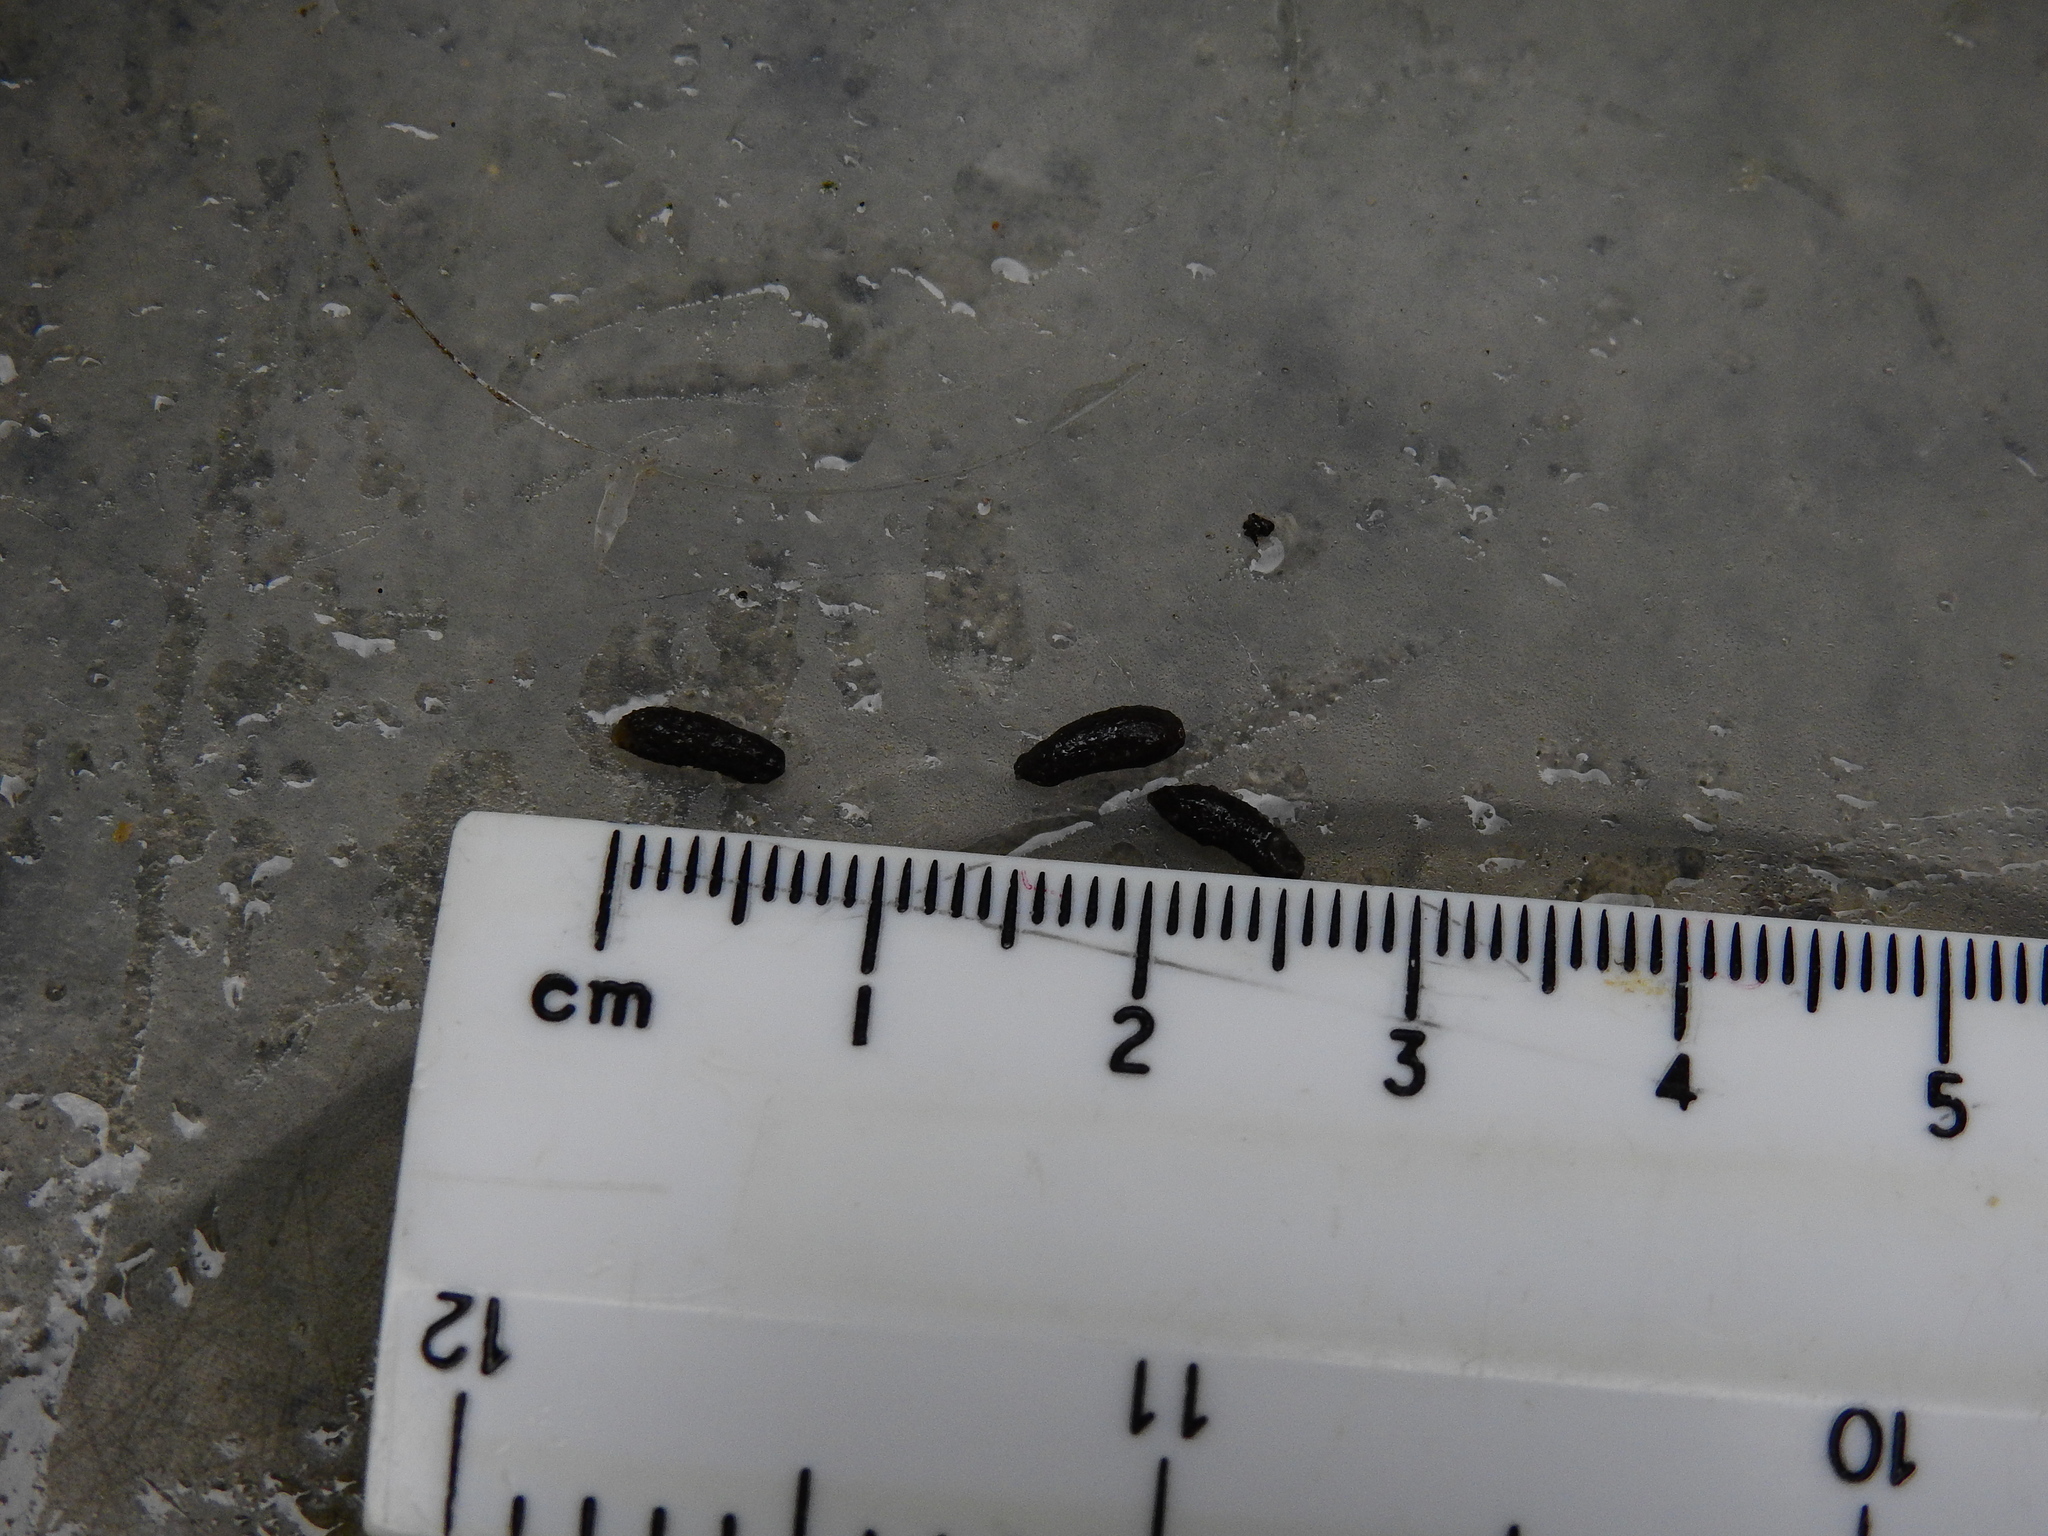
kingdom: Animalia
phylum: Chordata
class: Mammalia
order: Rodentia
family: Muridae
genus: Apodemus
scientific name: Apodemus sylvaticus
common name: Wood mouse
